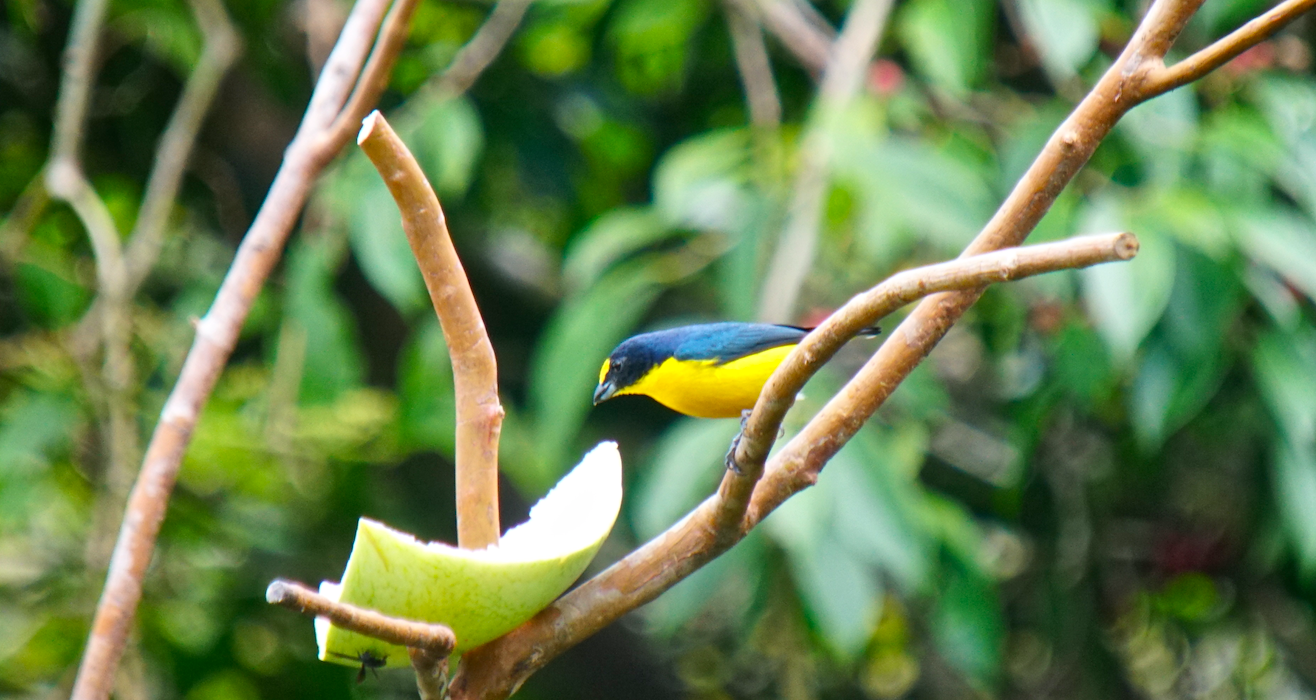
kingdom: Animalia
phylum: Chordata
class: Aves
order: Passeriformes
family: Fringillidae
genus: Euphonia
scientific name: Euphonia hirundinacea
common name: Yellow-throated euphonia
